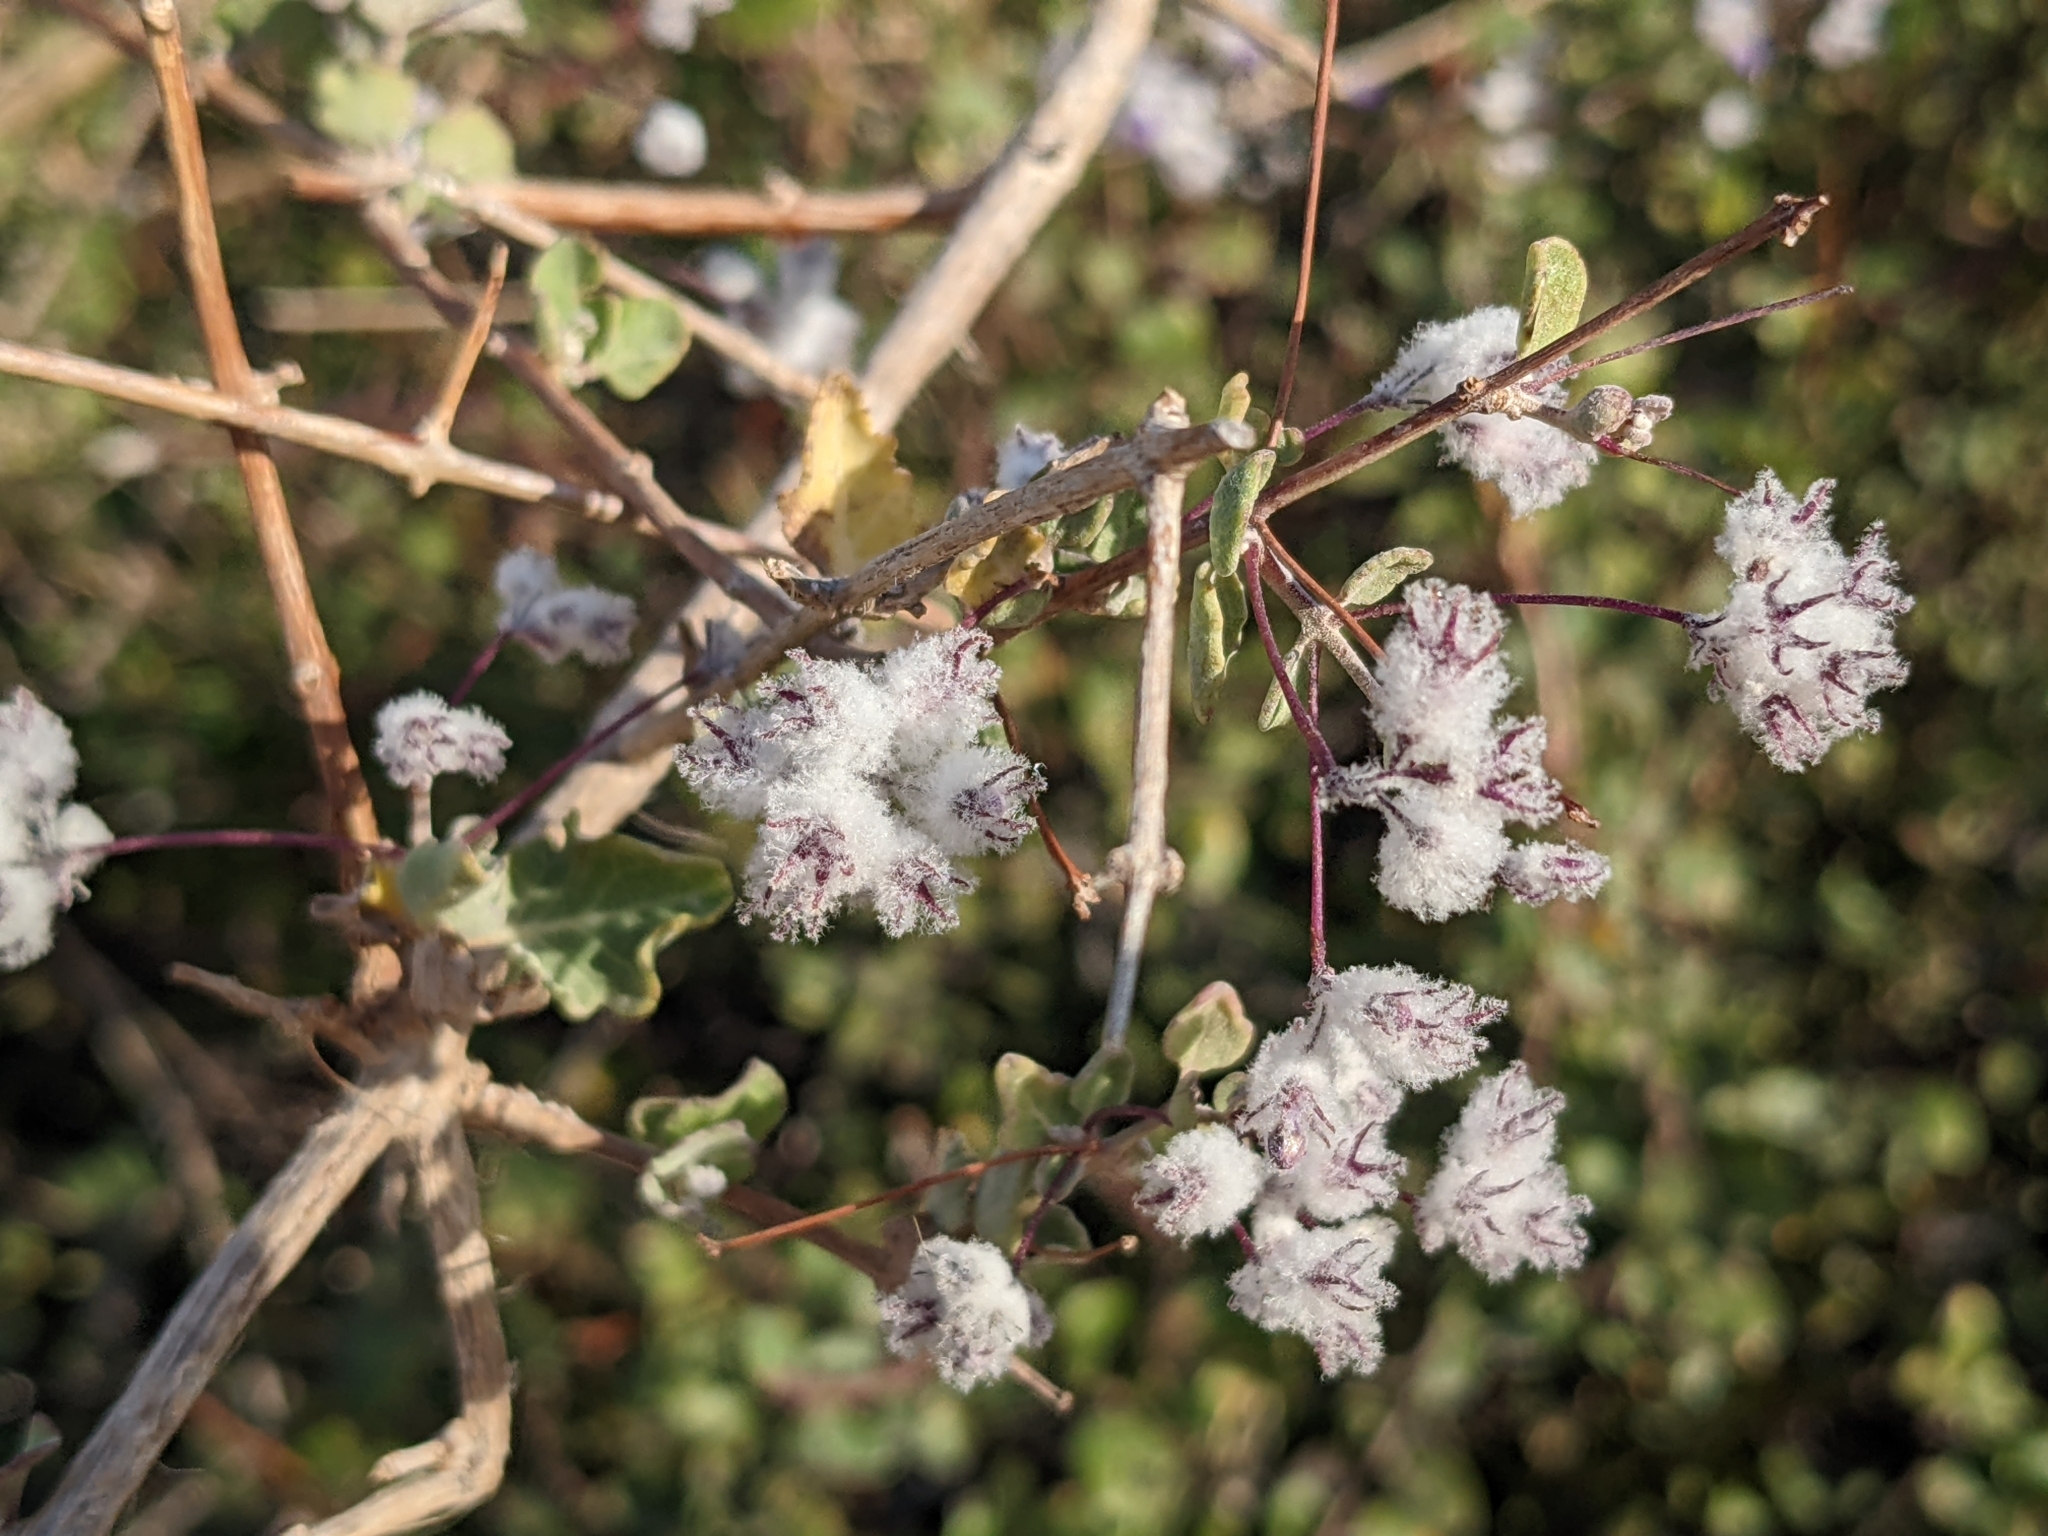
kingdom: Plantae
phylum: Tracheophyta
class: Magnoliopsida
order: Lamiales
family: Lamiaceae
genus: Condea
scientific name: Condea laniflora
